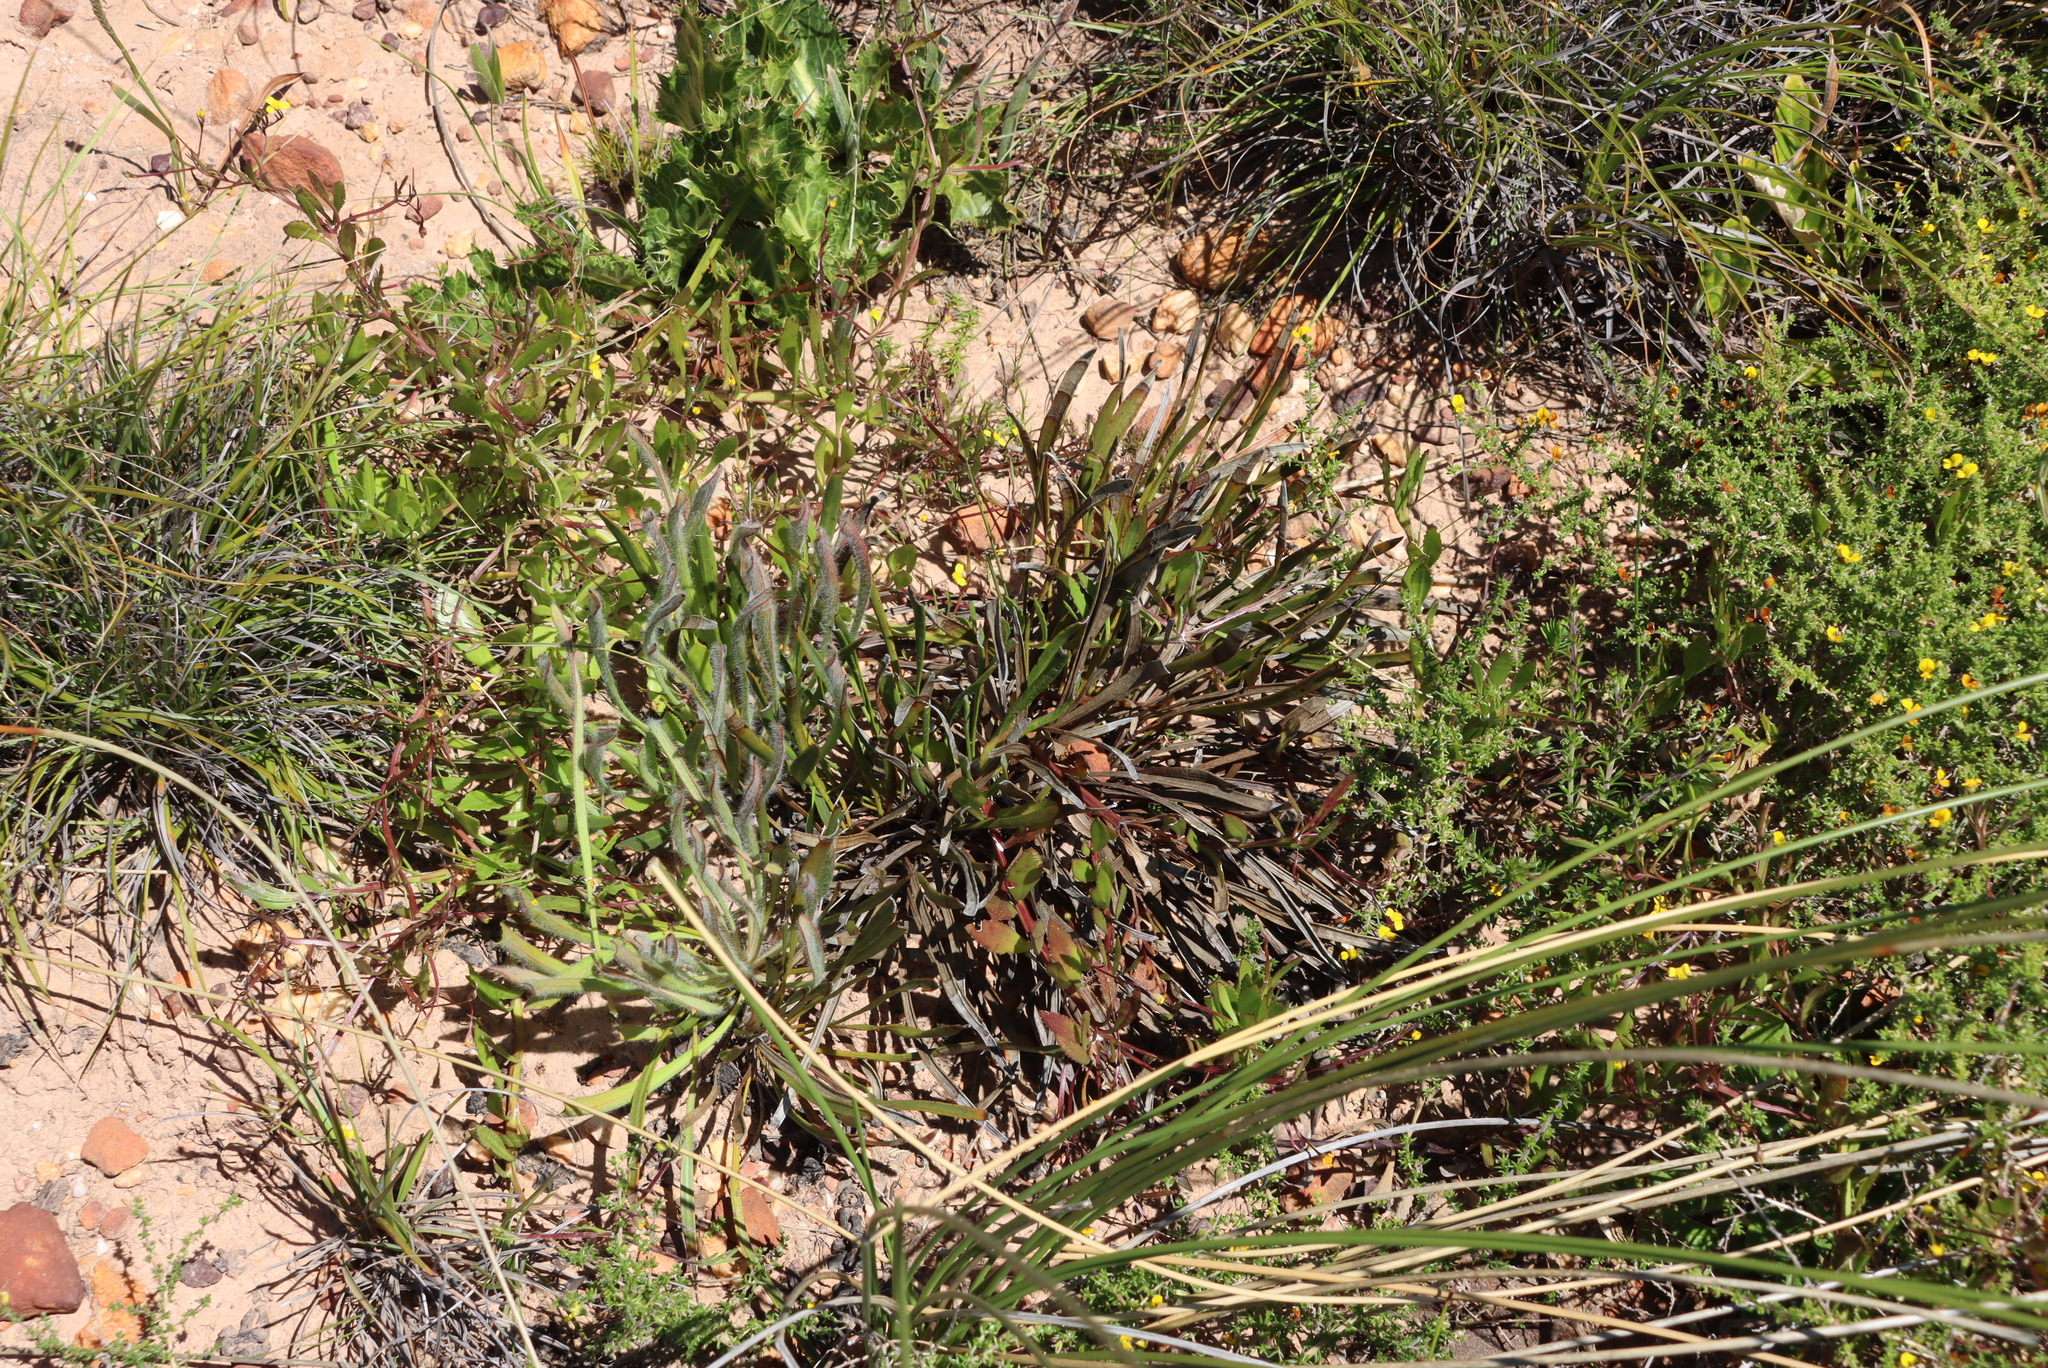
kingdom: Plantae
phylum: Tracheophyta
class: Magnoliopsida
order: Proteales
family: Proteaceae
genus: Protea
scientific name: Protea scabra
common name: Sandpaper-leaf sugarbush
